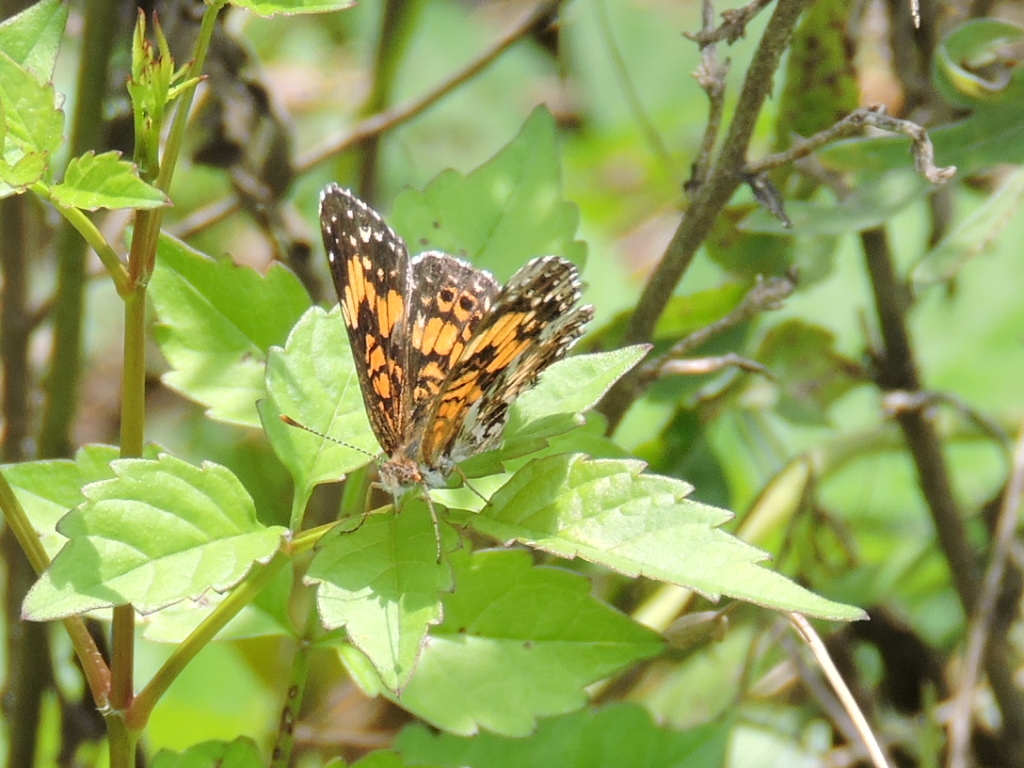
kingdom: Animalia
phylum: Arthropoda
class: Insecta
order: Lepidoptera
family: Nymphalidae
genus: Chlosyne
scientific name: Chlosyne gorgone
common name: Gorgone checkerspot
